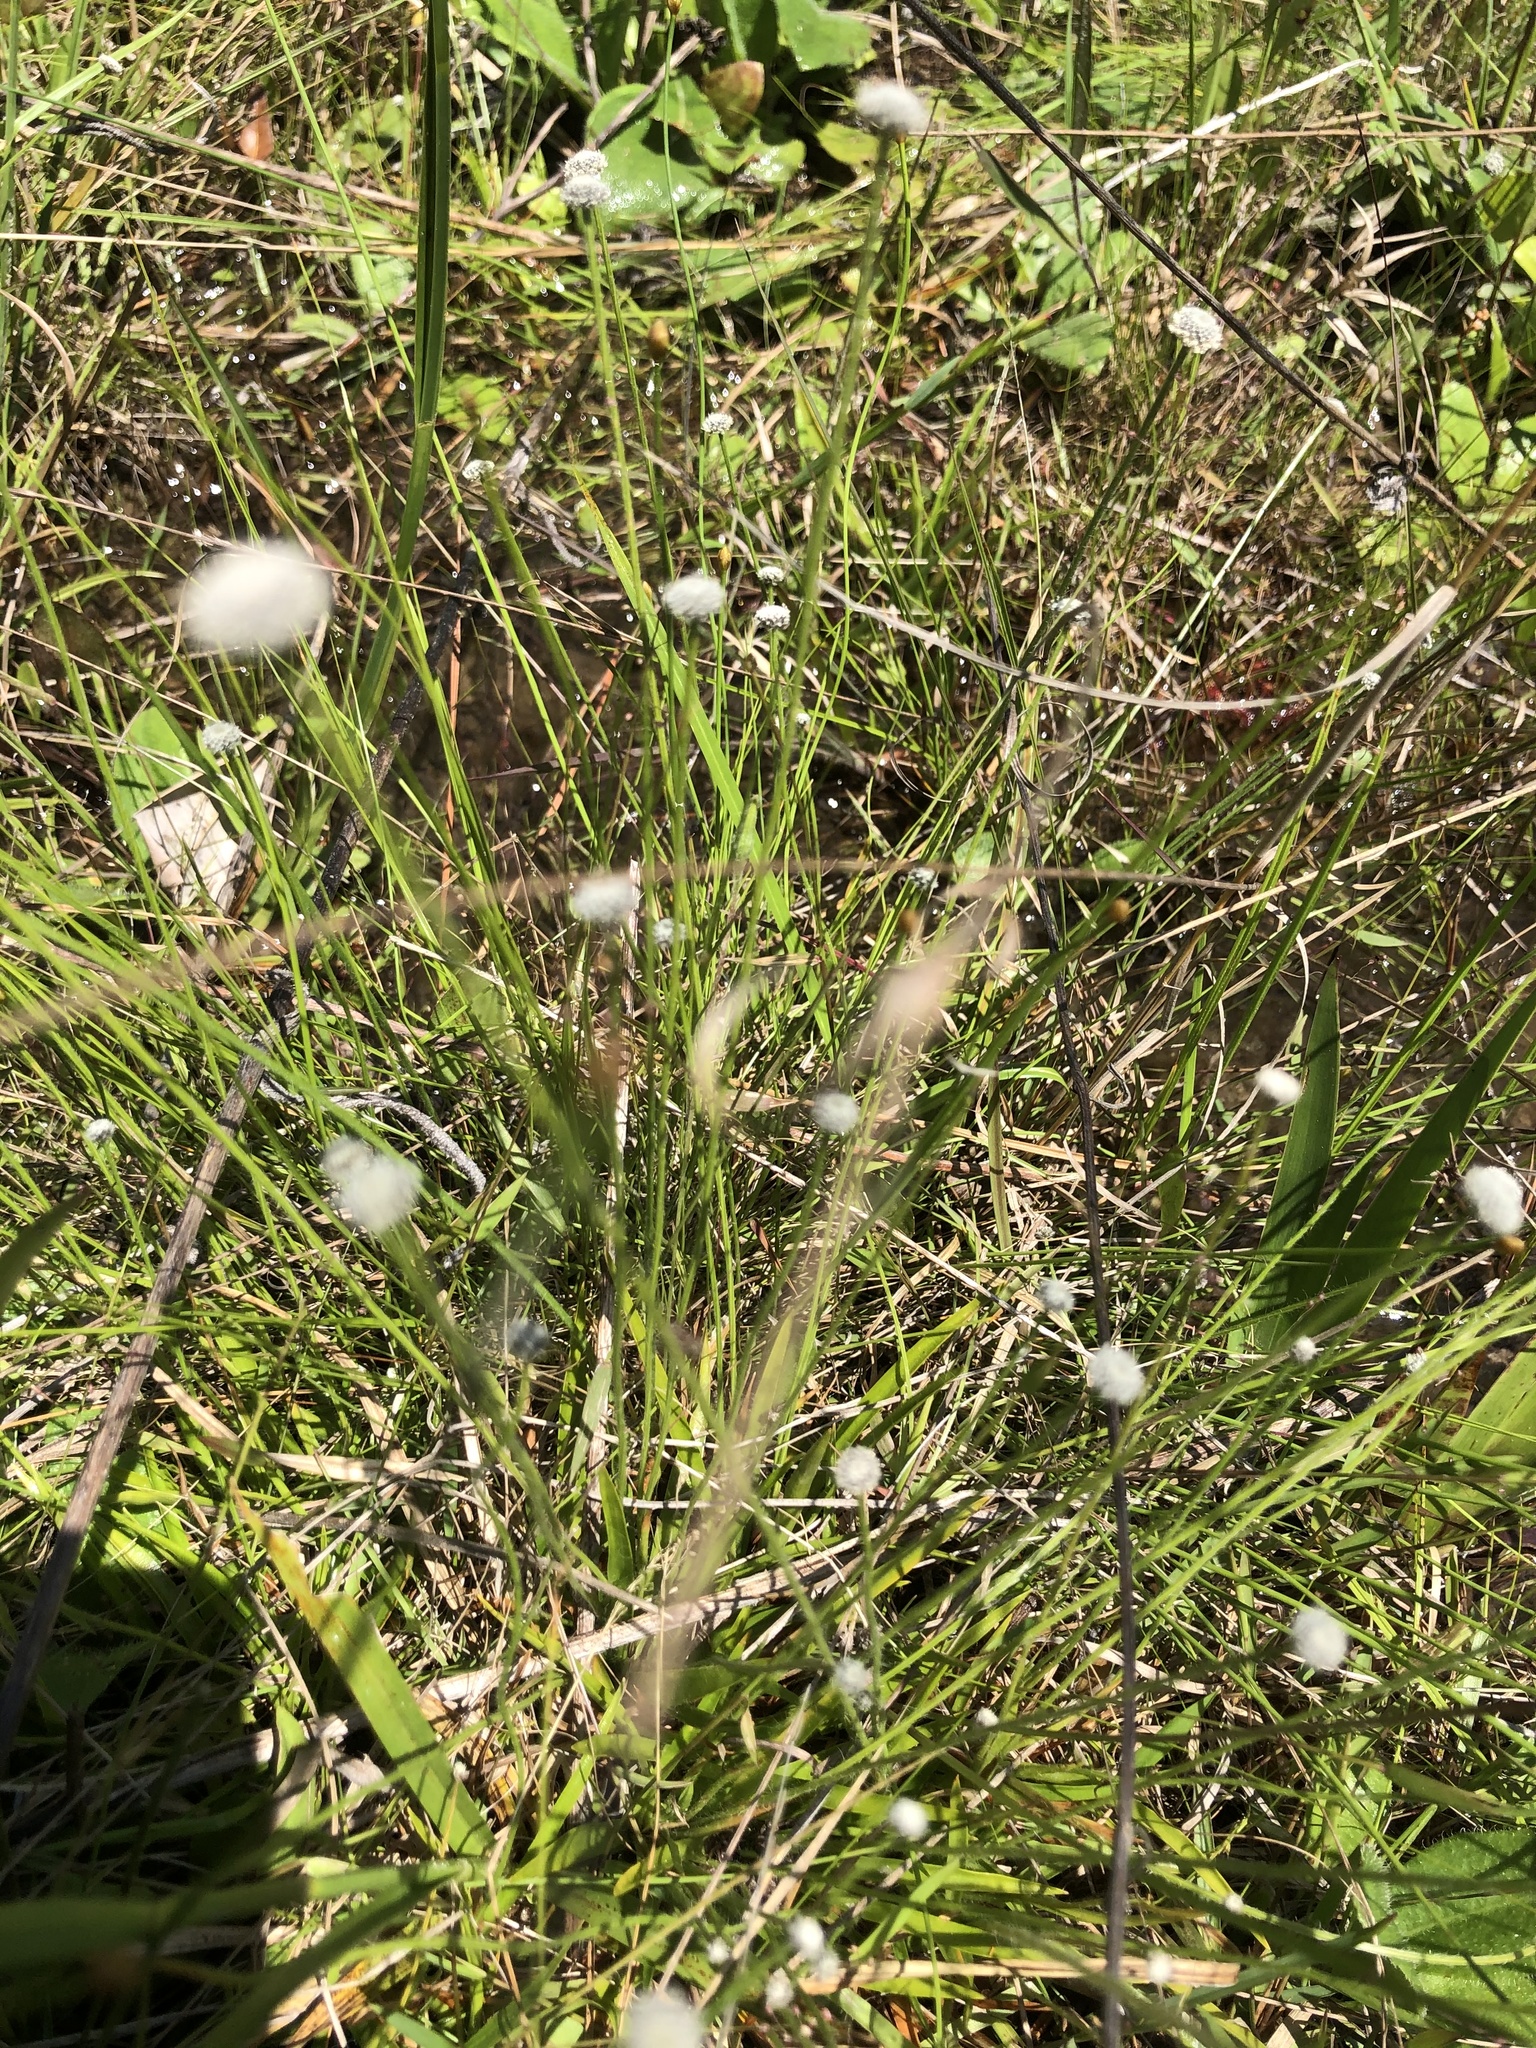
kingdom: Plantae
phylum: Tracheophyta
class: Liliopsida
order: Poales
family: Eriocaulaceae
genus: Paepalanthus
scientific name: Paepalanthus anceps
